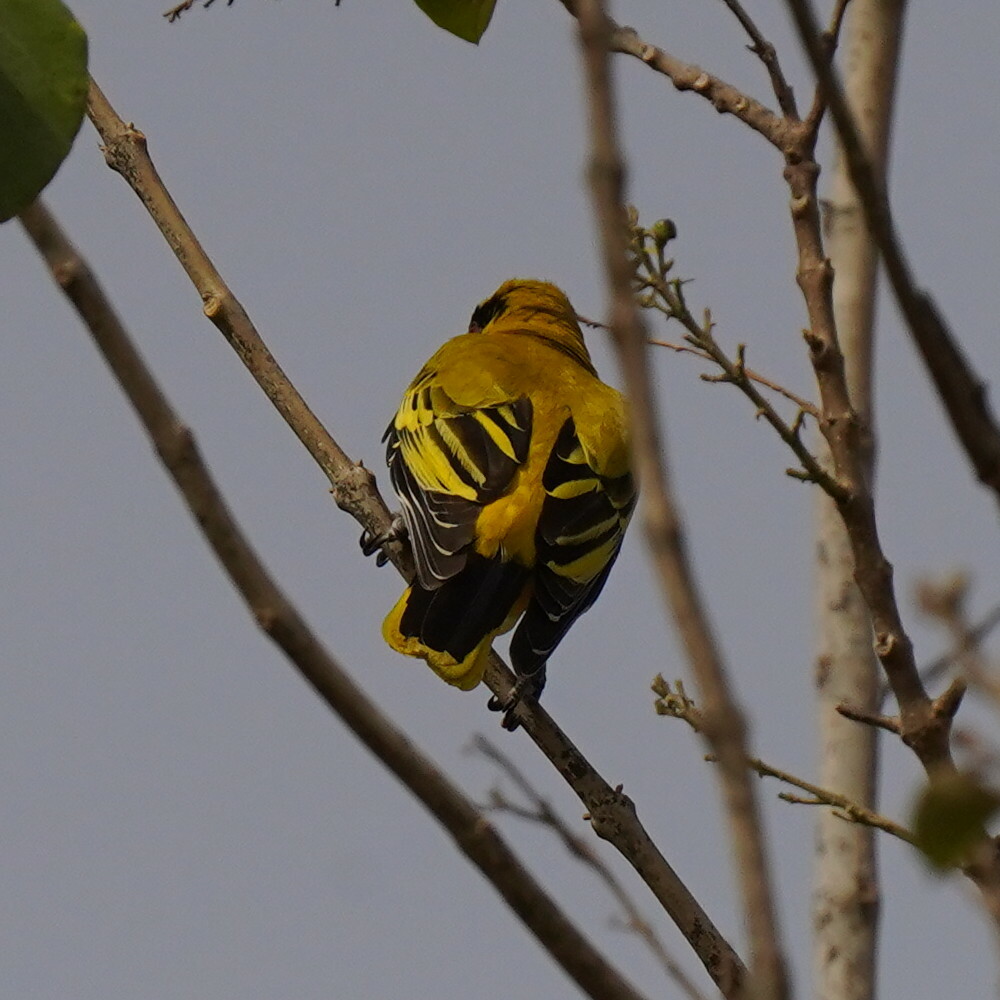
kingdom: Animalia
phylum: Chordata
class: Aves
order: Passeriformes
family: Oriolidae
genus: Oriolus
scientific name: Oriolus auratus
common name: African golden oriole
